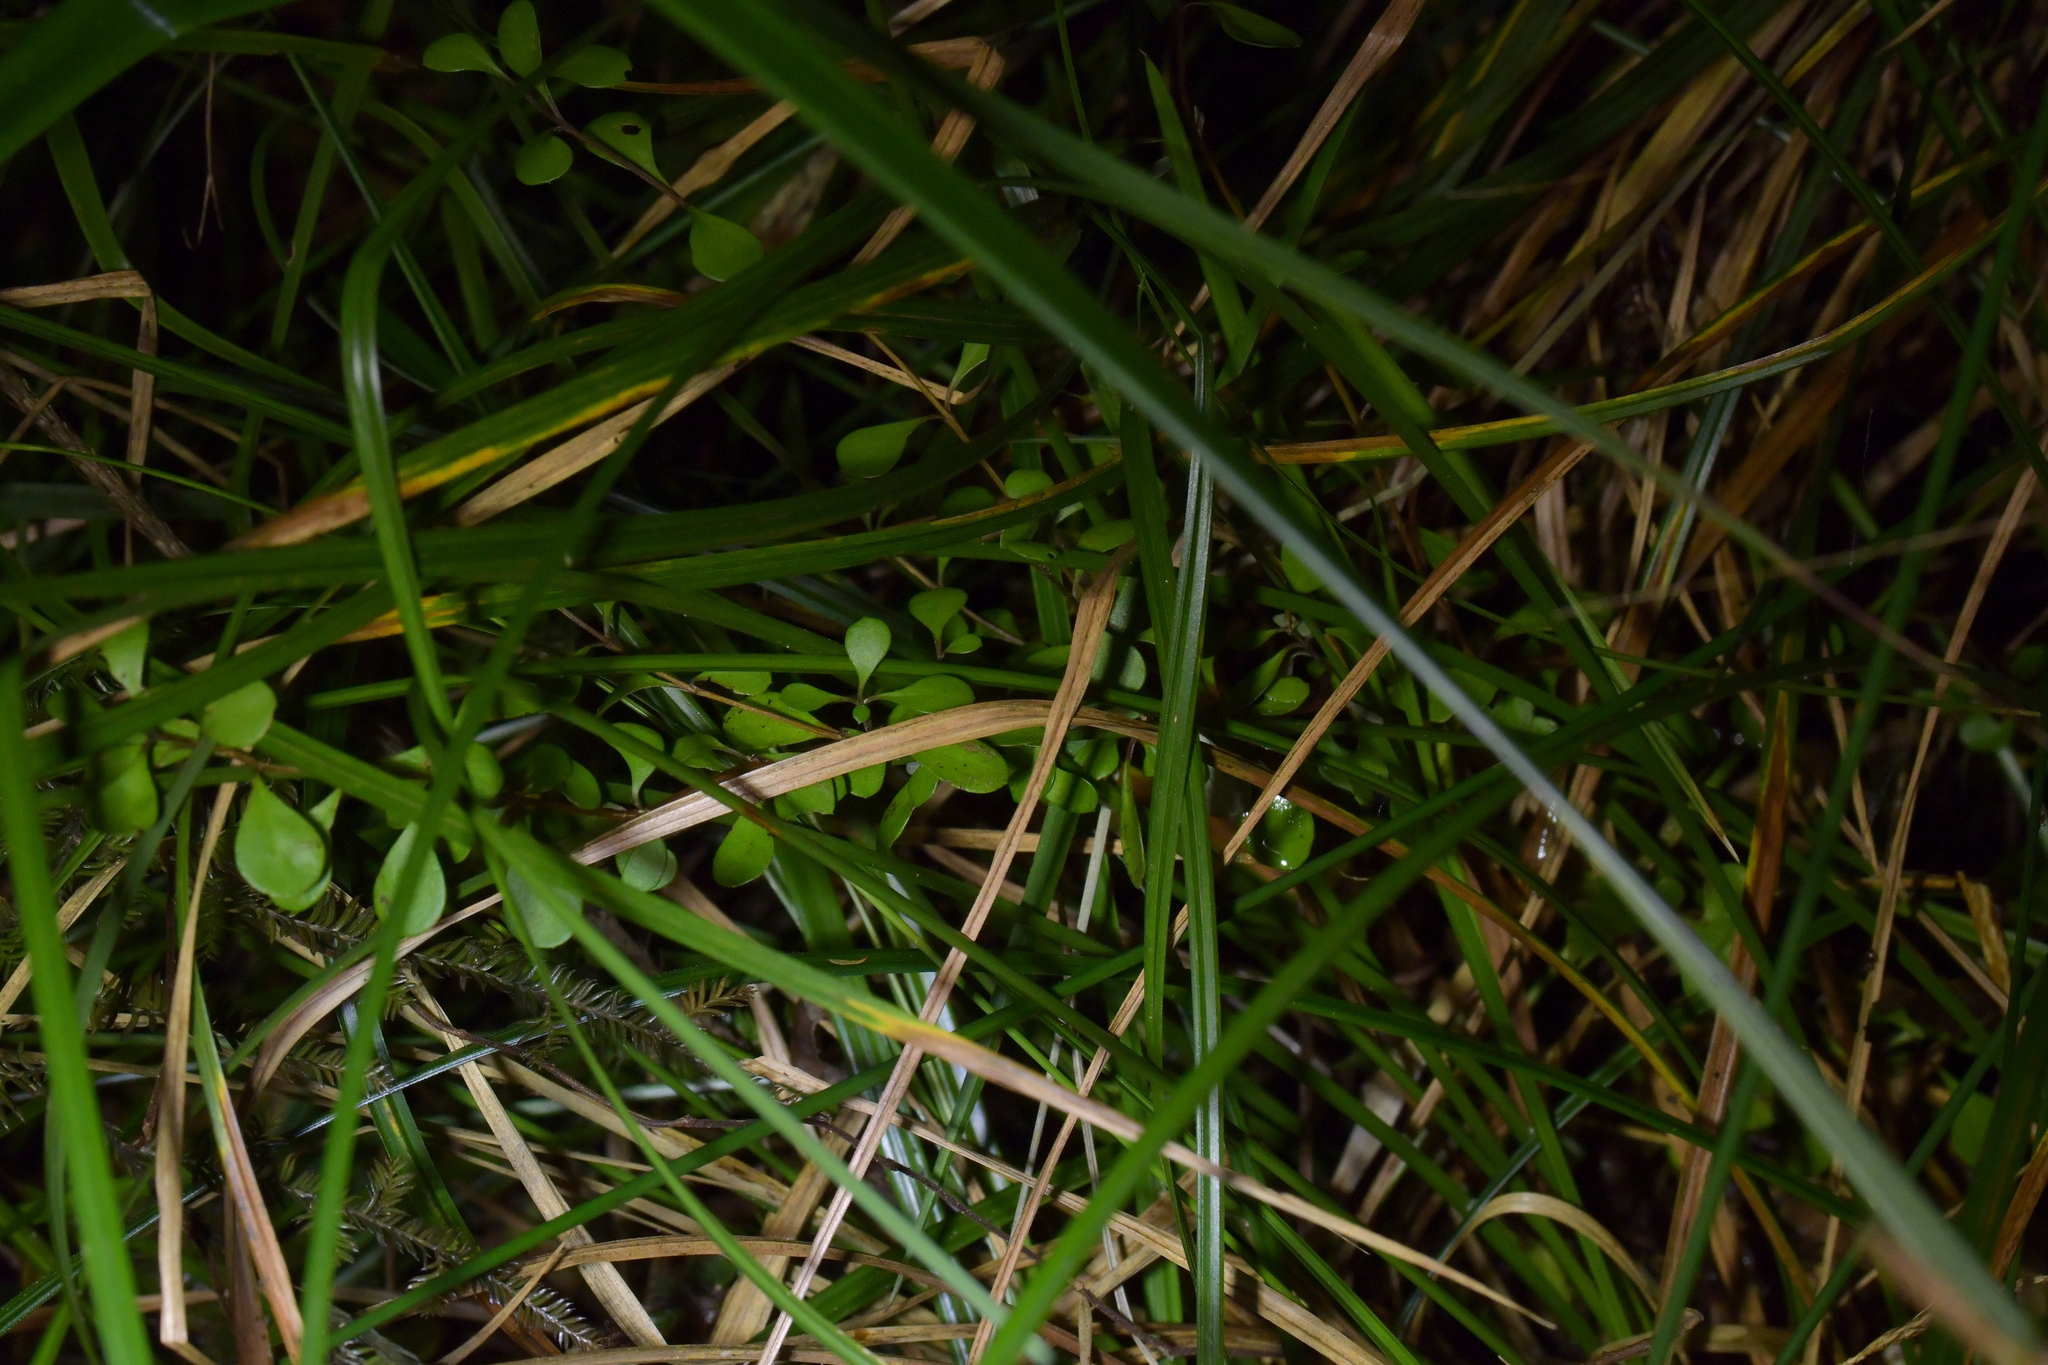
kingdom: Plantae
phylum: Tracheophyta
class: Magnoliopsida
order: Asterales
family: Asteraceae
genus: Olearia
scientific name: Olearia virgata
